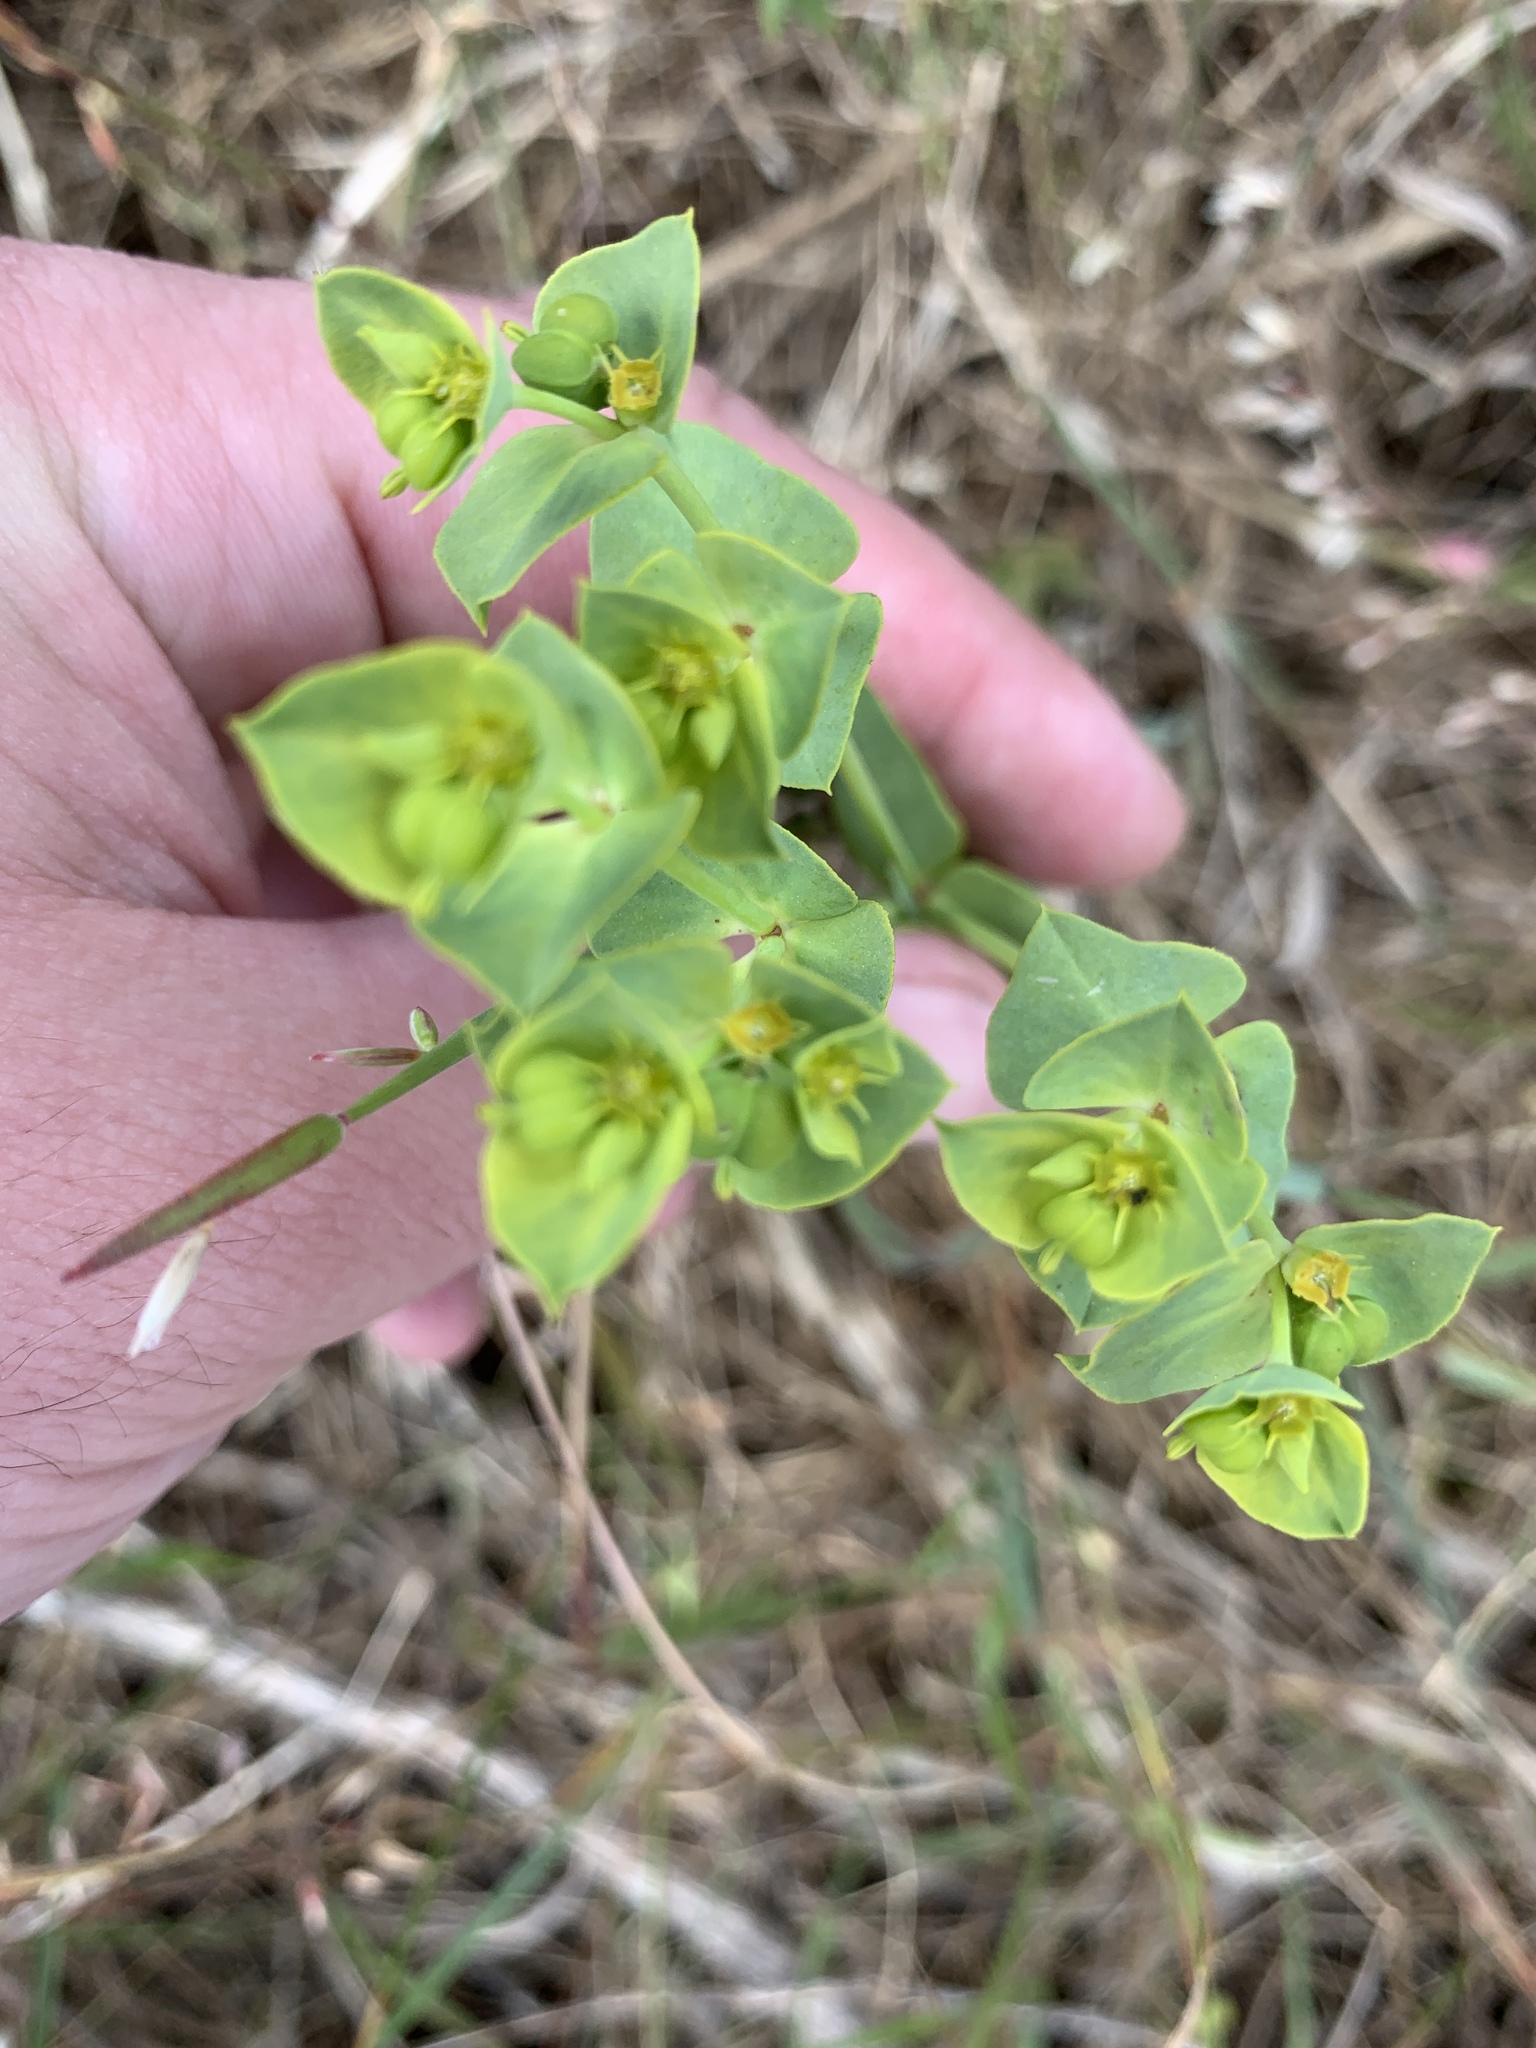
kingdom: Plantae
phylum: Tracheophyta
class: Magnoliopsida
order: Malpighiales
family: Euphorbiaceae
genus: Euphorbia
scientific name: Euphorbia terracina
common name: Geraldton carnation weed
